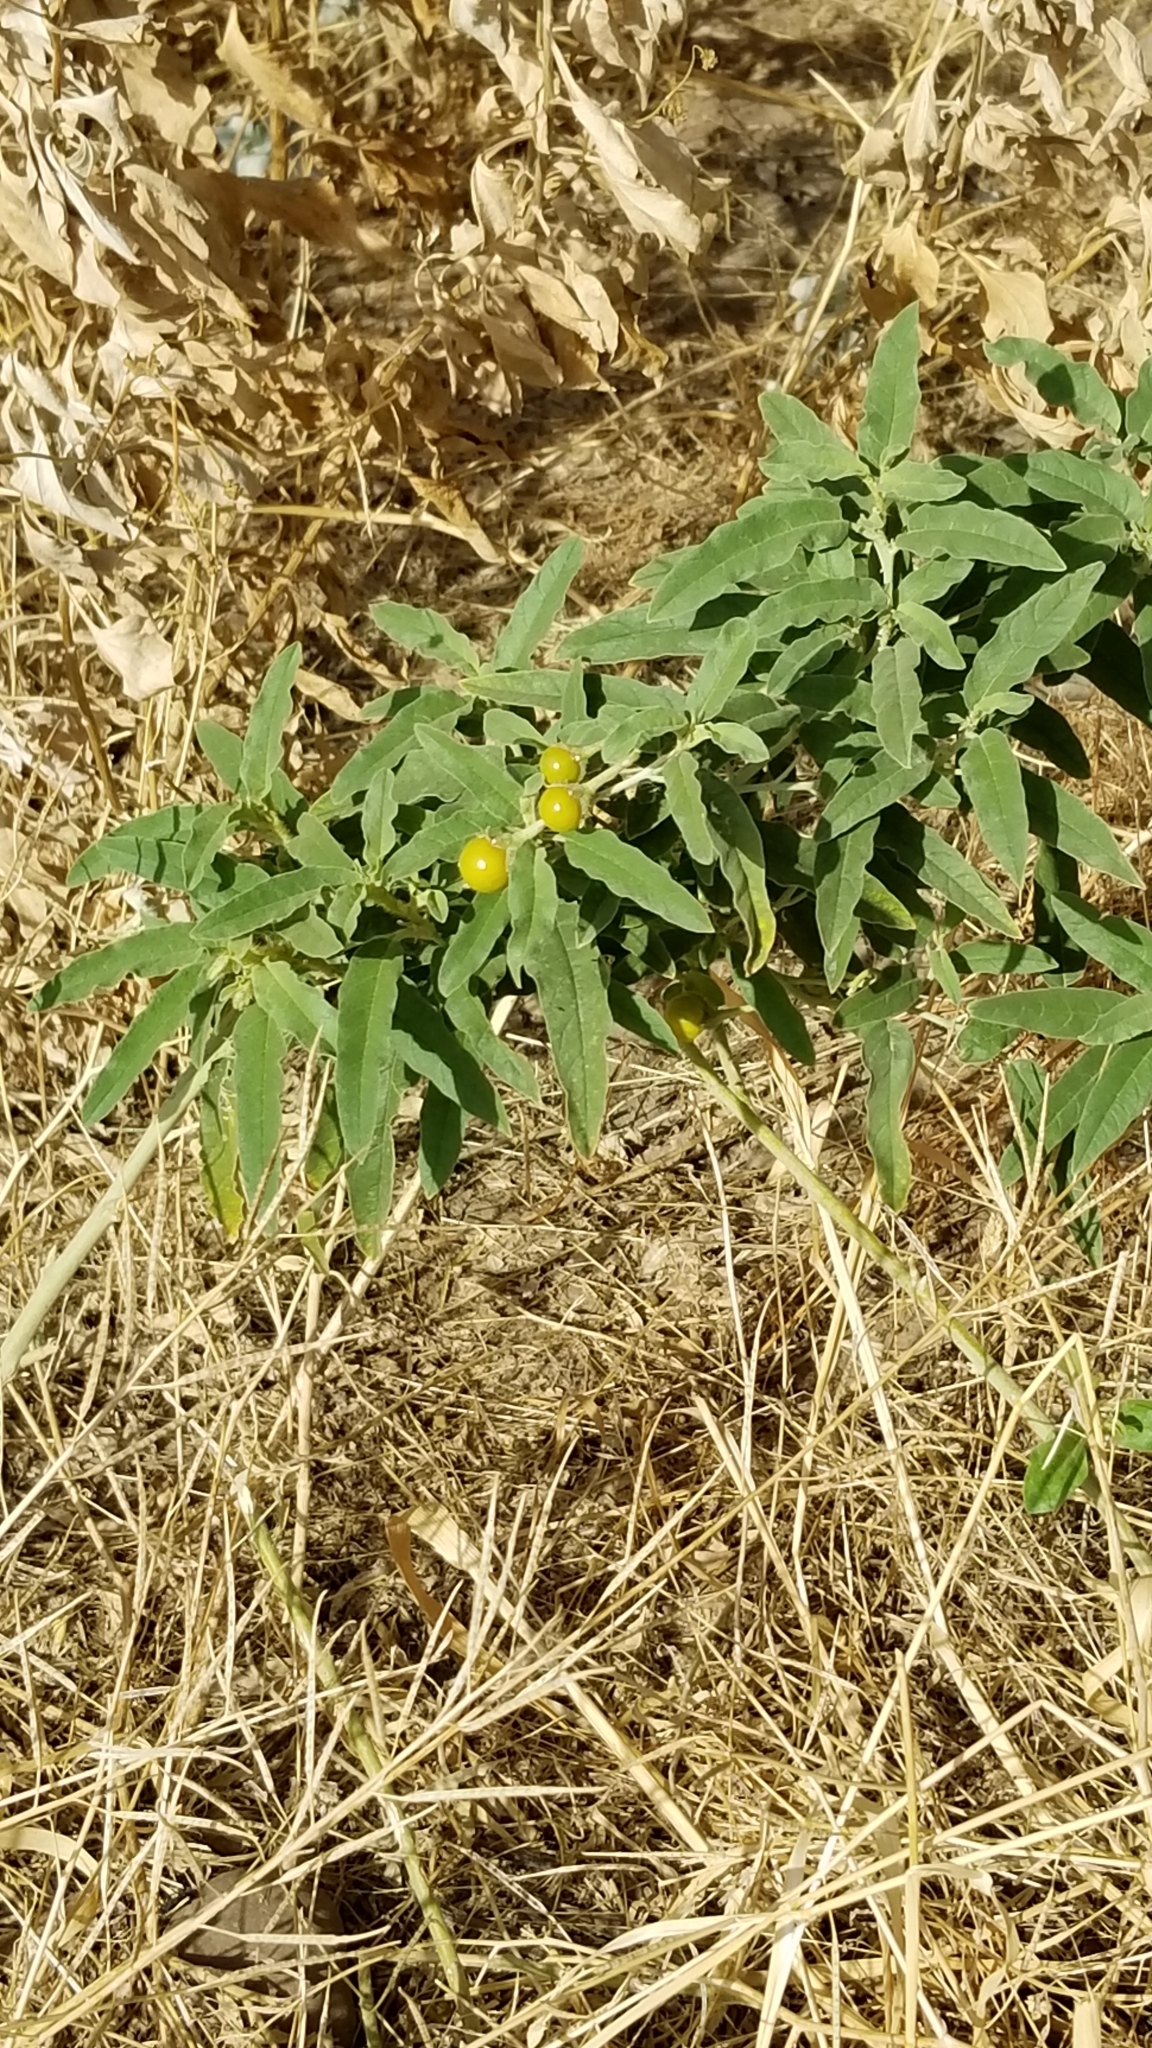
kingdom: Plantae
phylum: Tracheophyta
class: Magnoliopsida
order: Solanales
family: Solanaceae
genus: Solanum
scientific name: Solanum elaeagnifolium
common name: Silverleaf nightshade
